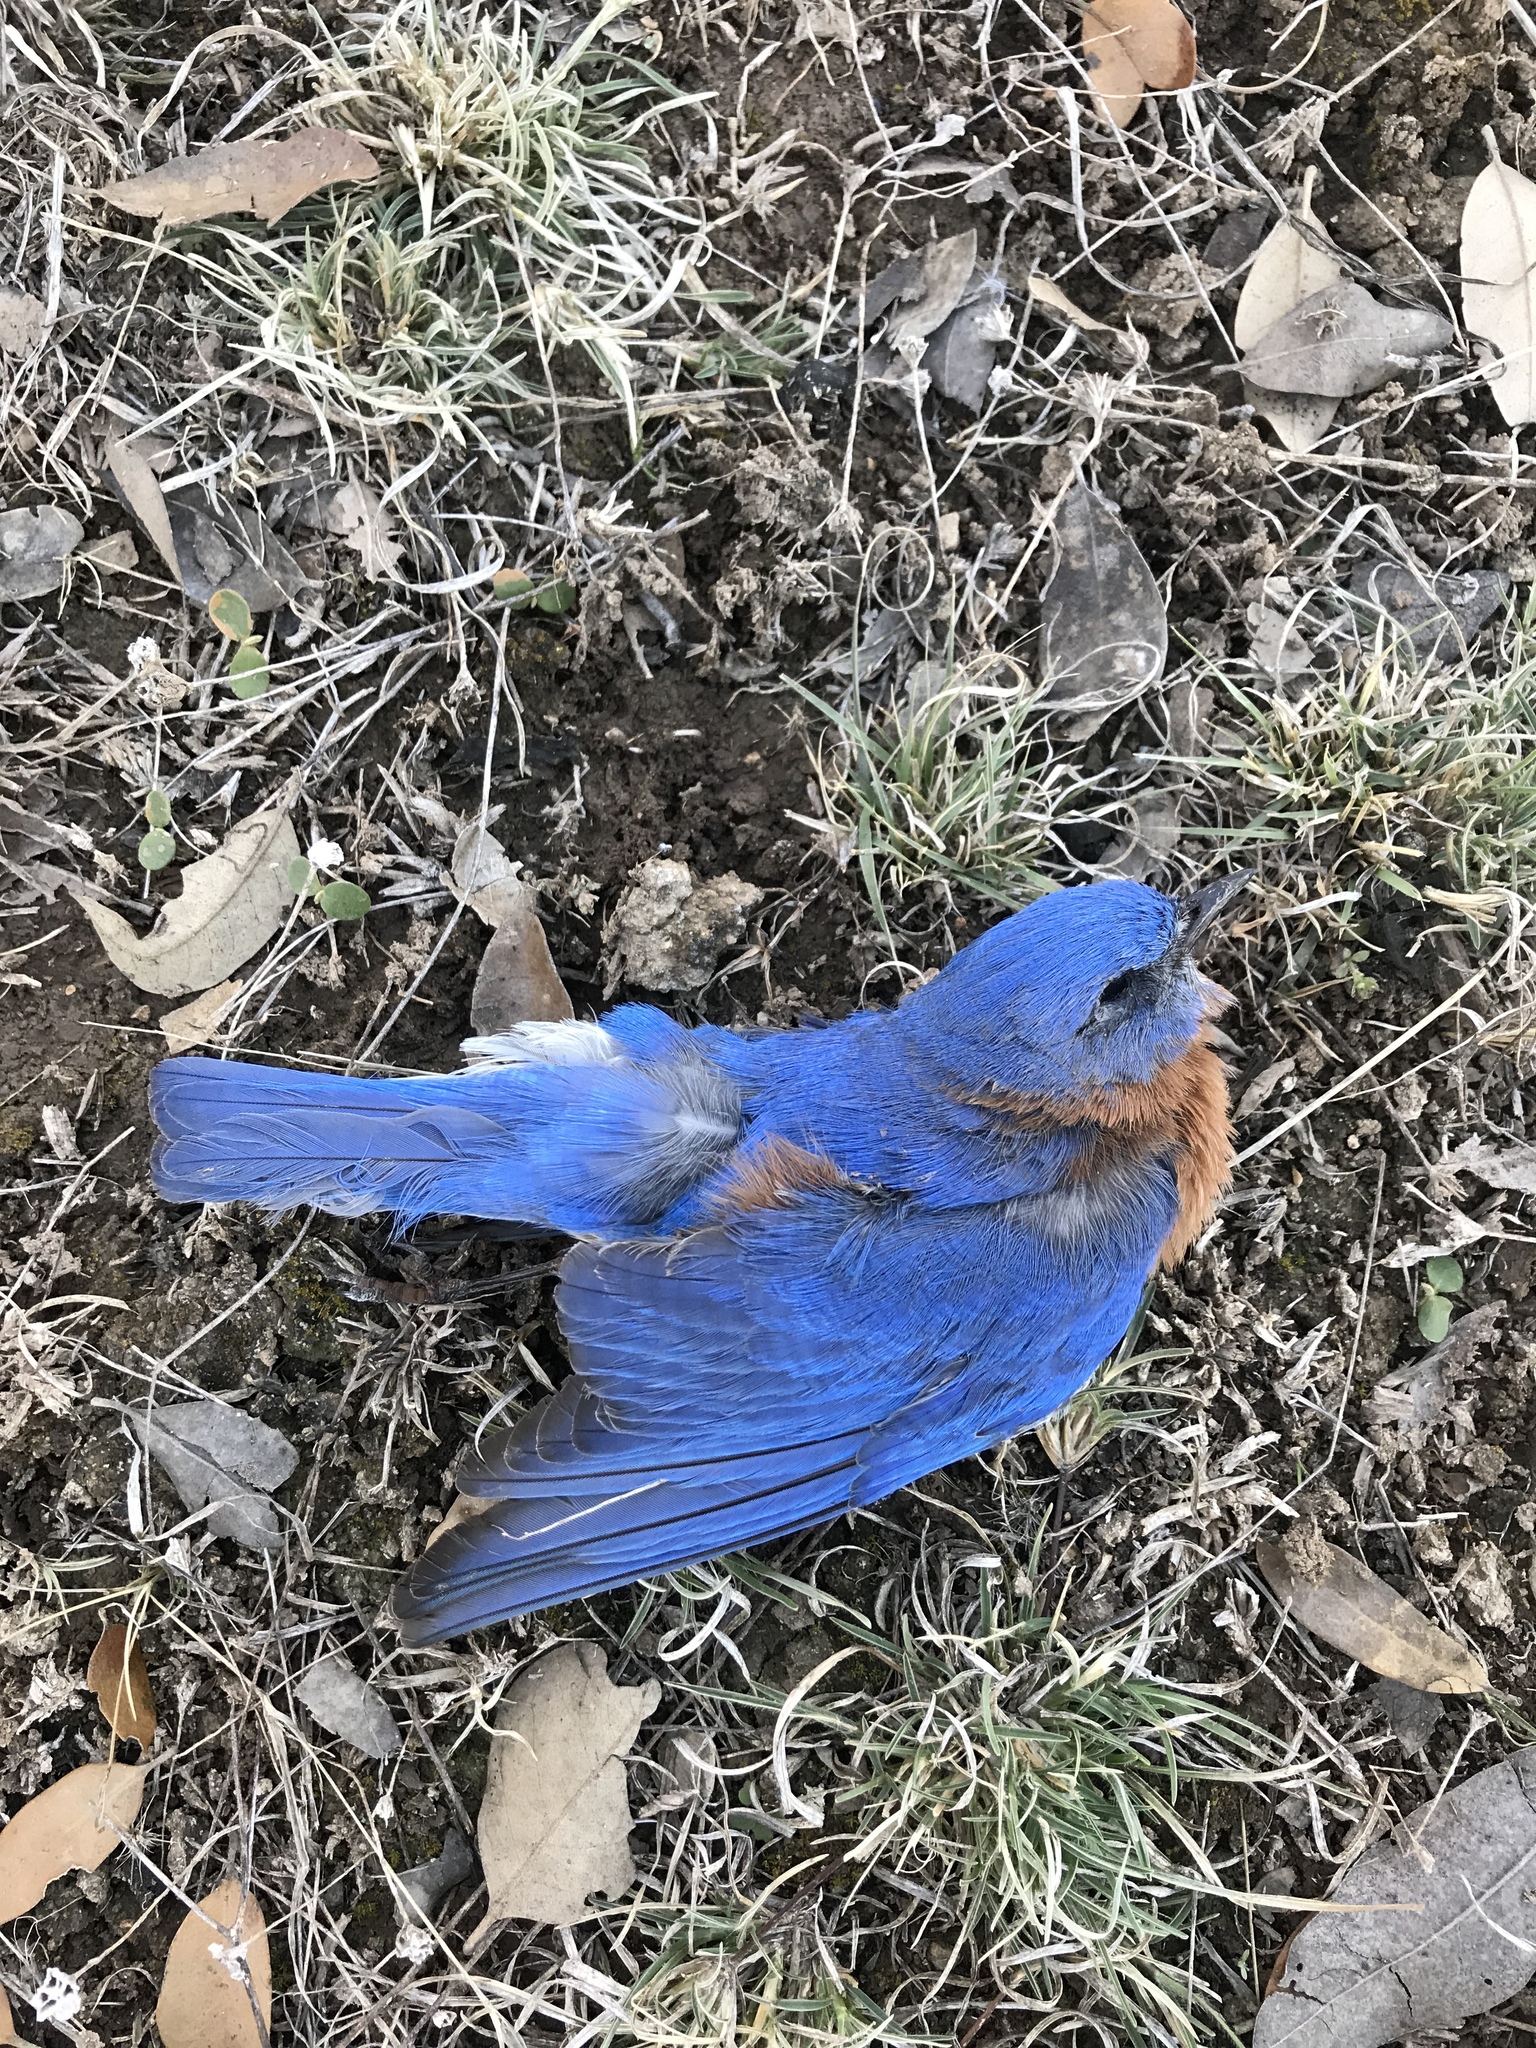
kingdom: Animalia
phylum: Chordata
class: Aves
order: Passeriformes
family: Turdidae
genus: Sialia
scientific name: Sialia sialis
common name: Eastern bluebird
